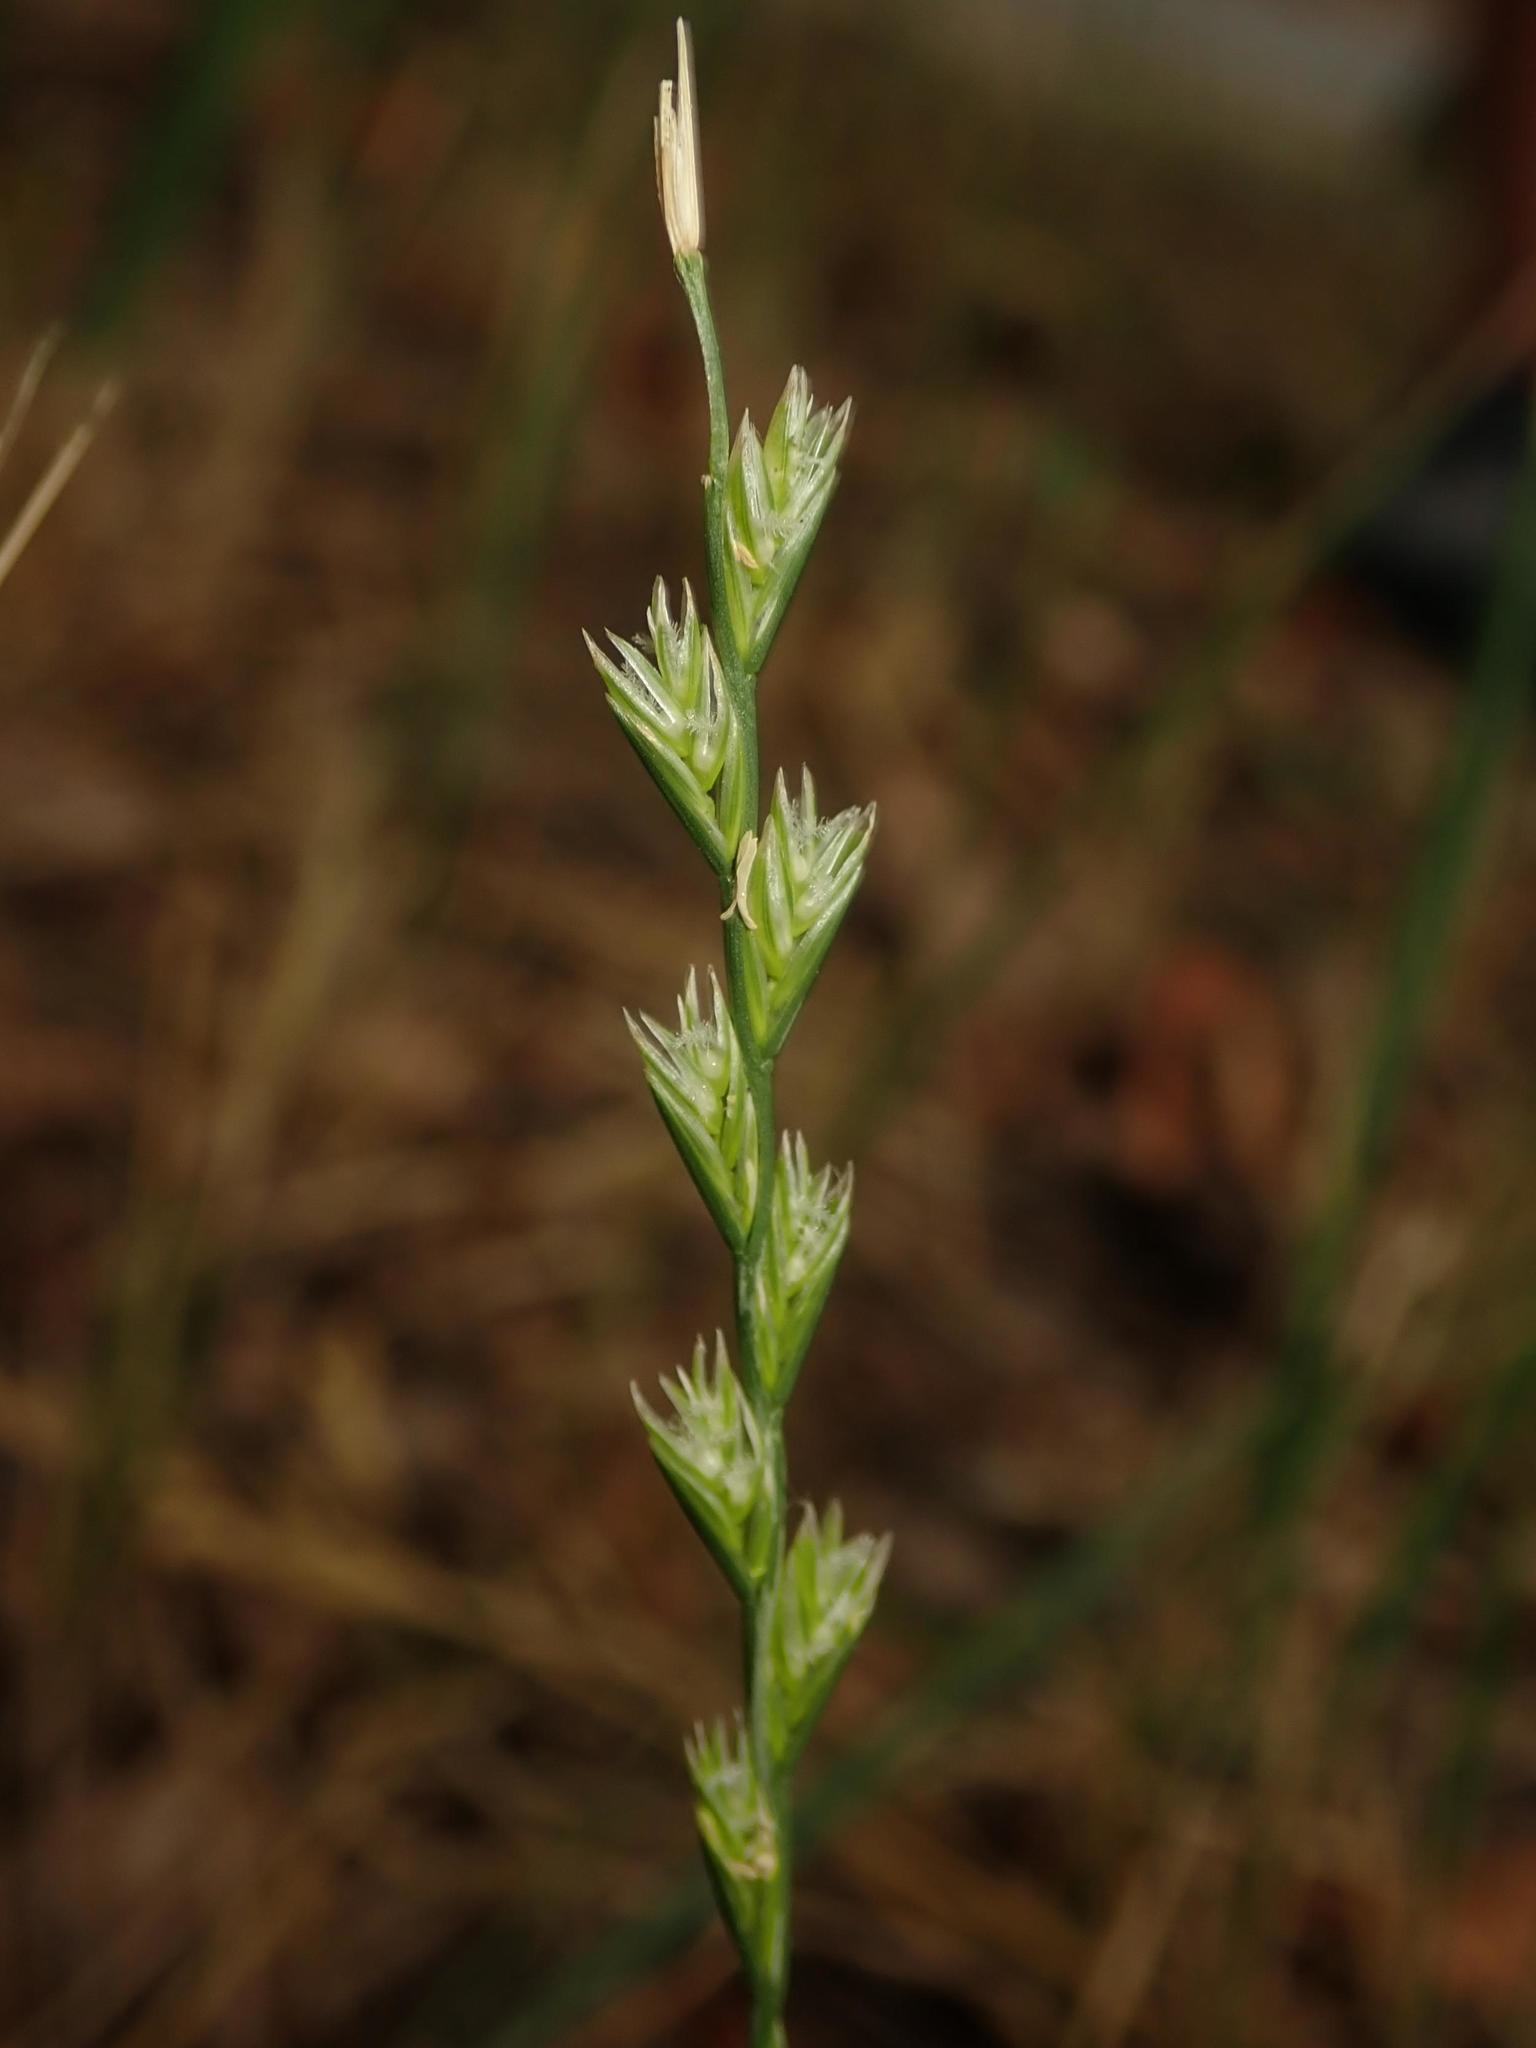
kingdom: Plantae
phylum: Tracheophyta
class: Liliopsida
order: Poales
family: Poaceae
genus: Lolium
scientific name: Lolium perenne
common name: Perennial ryegrass
